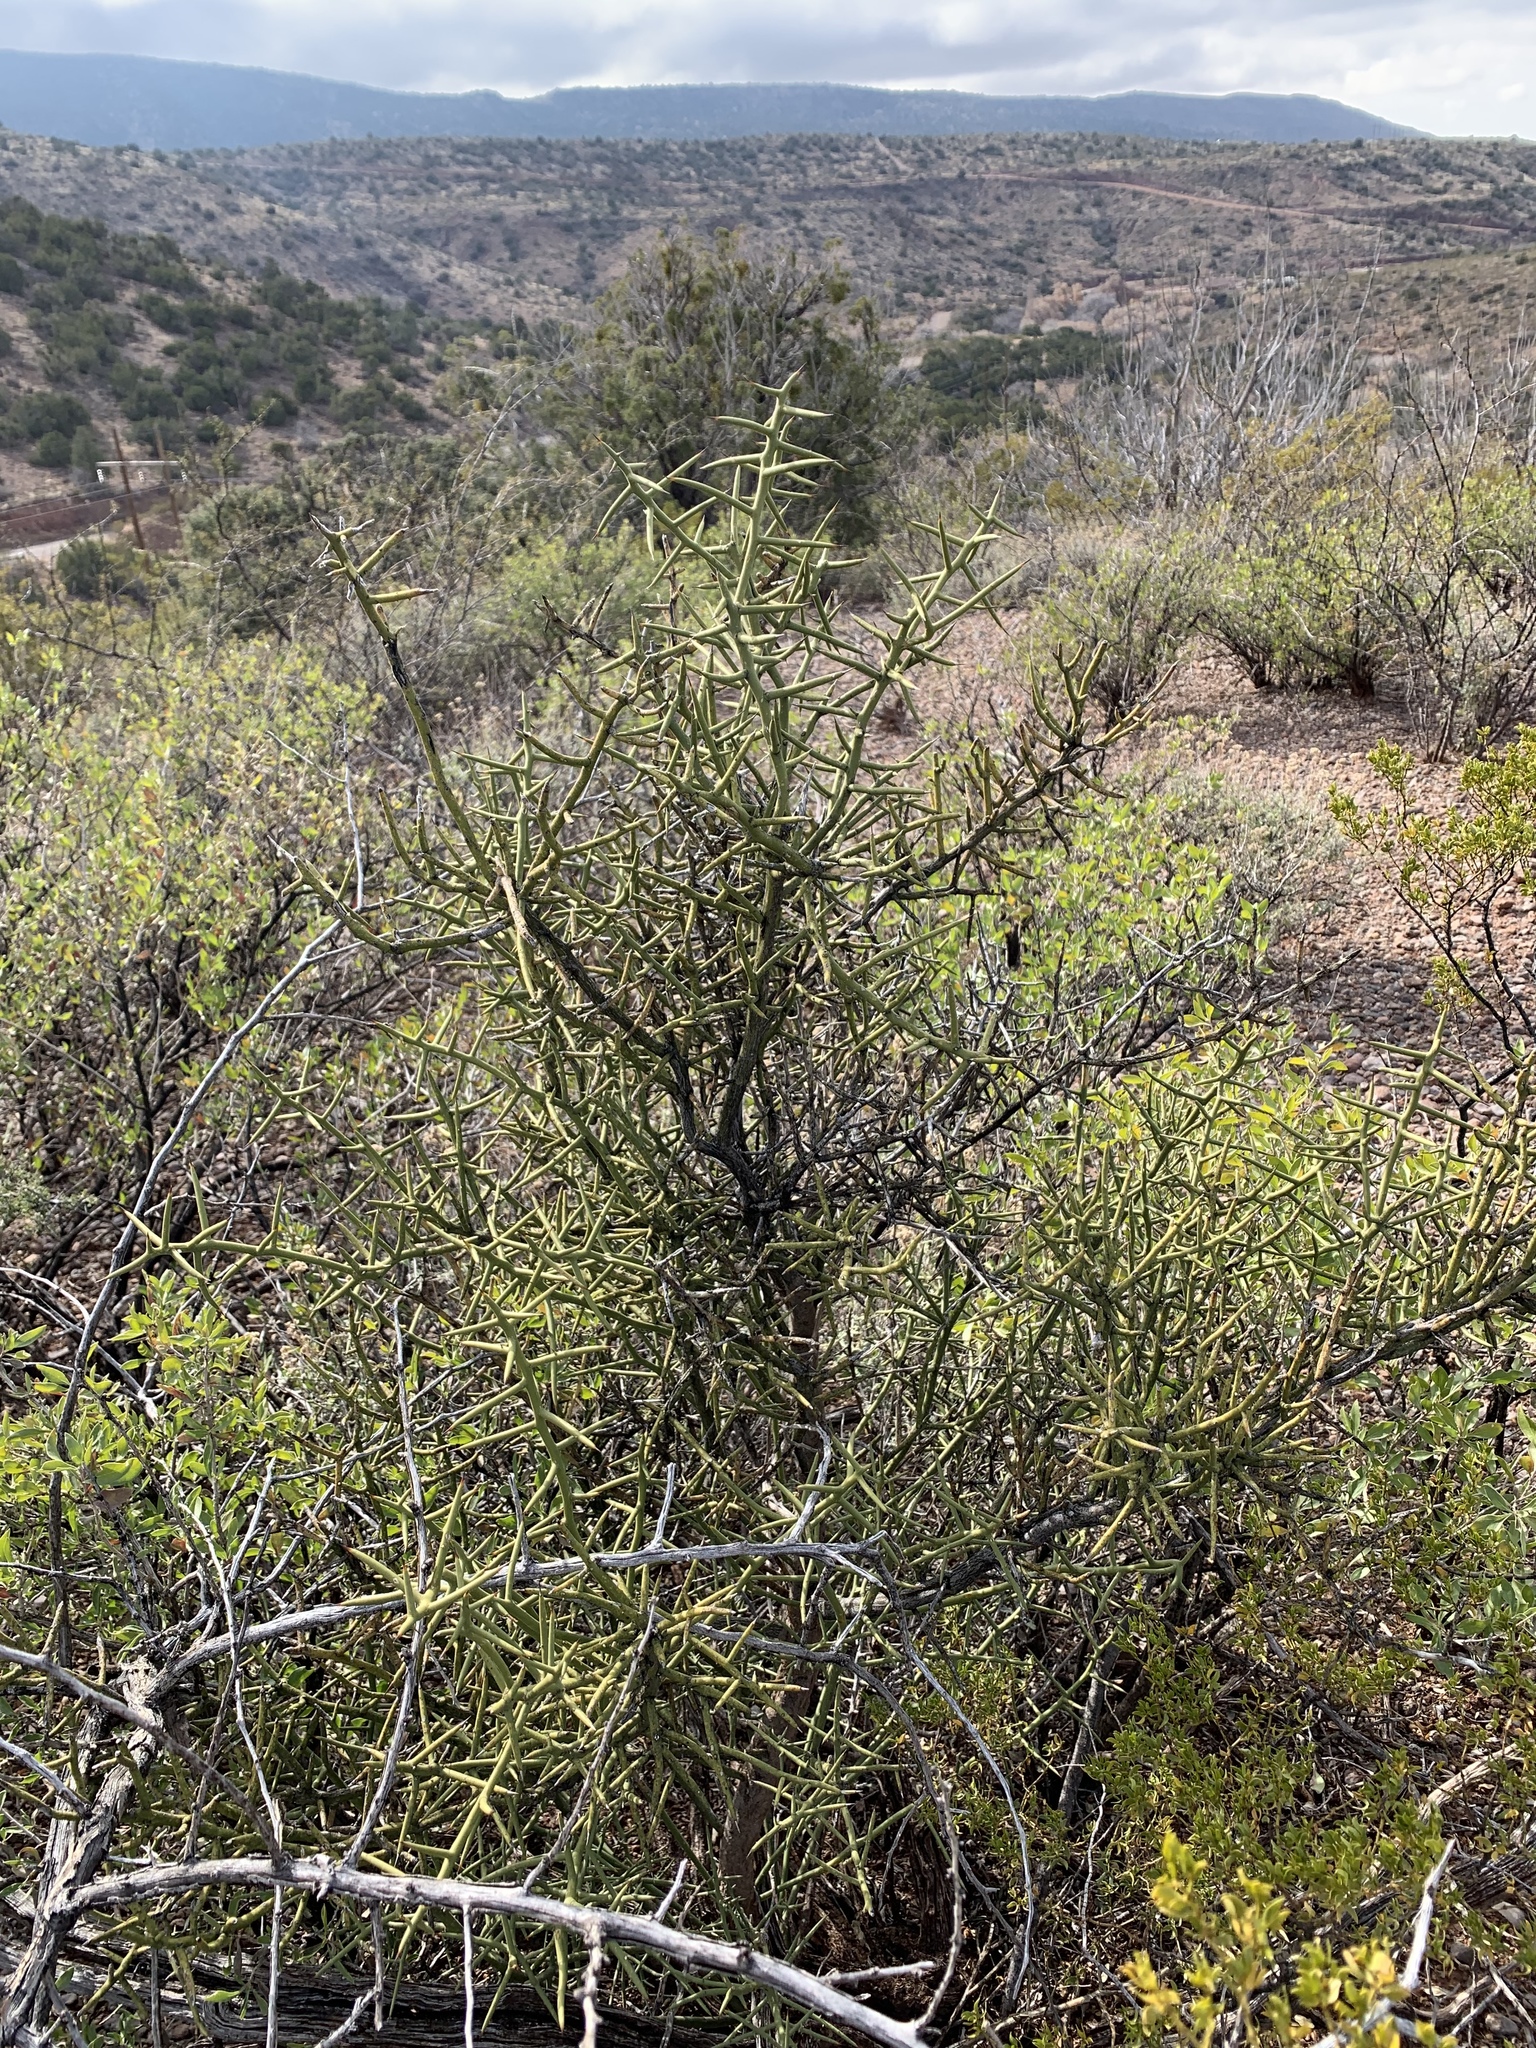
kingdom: Plantae
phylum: Tracheophyta
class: Magnoliopsida
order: Brassicales
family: Koeberliniaceae
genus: Koeberlinia
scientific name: Koeberlinia spinosa
